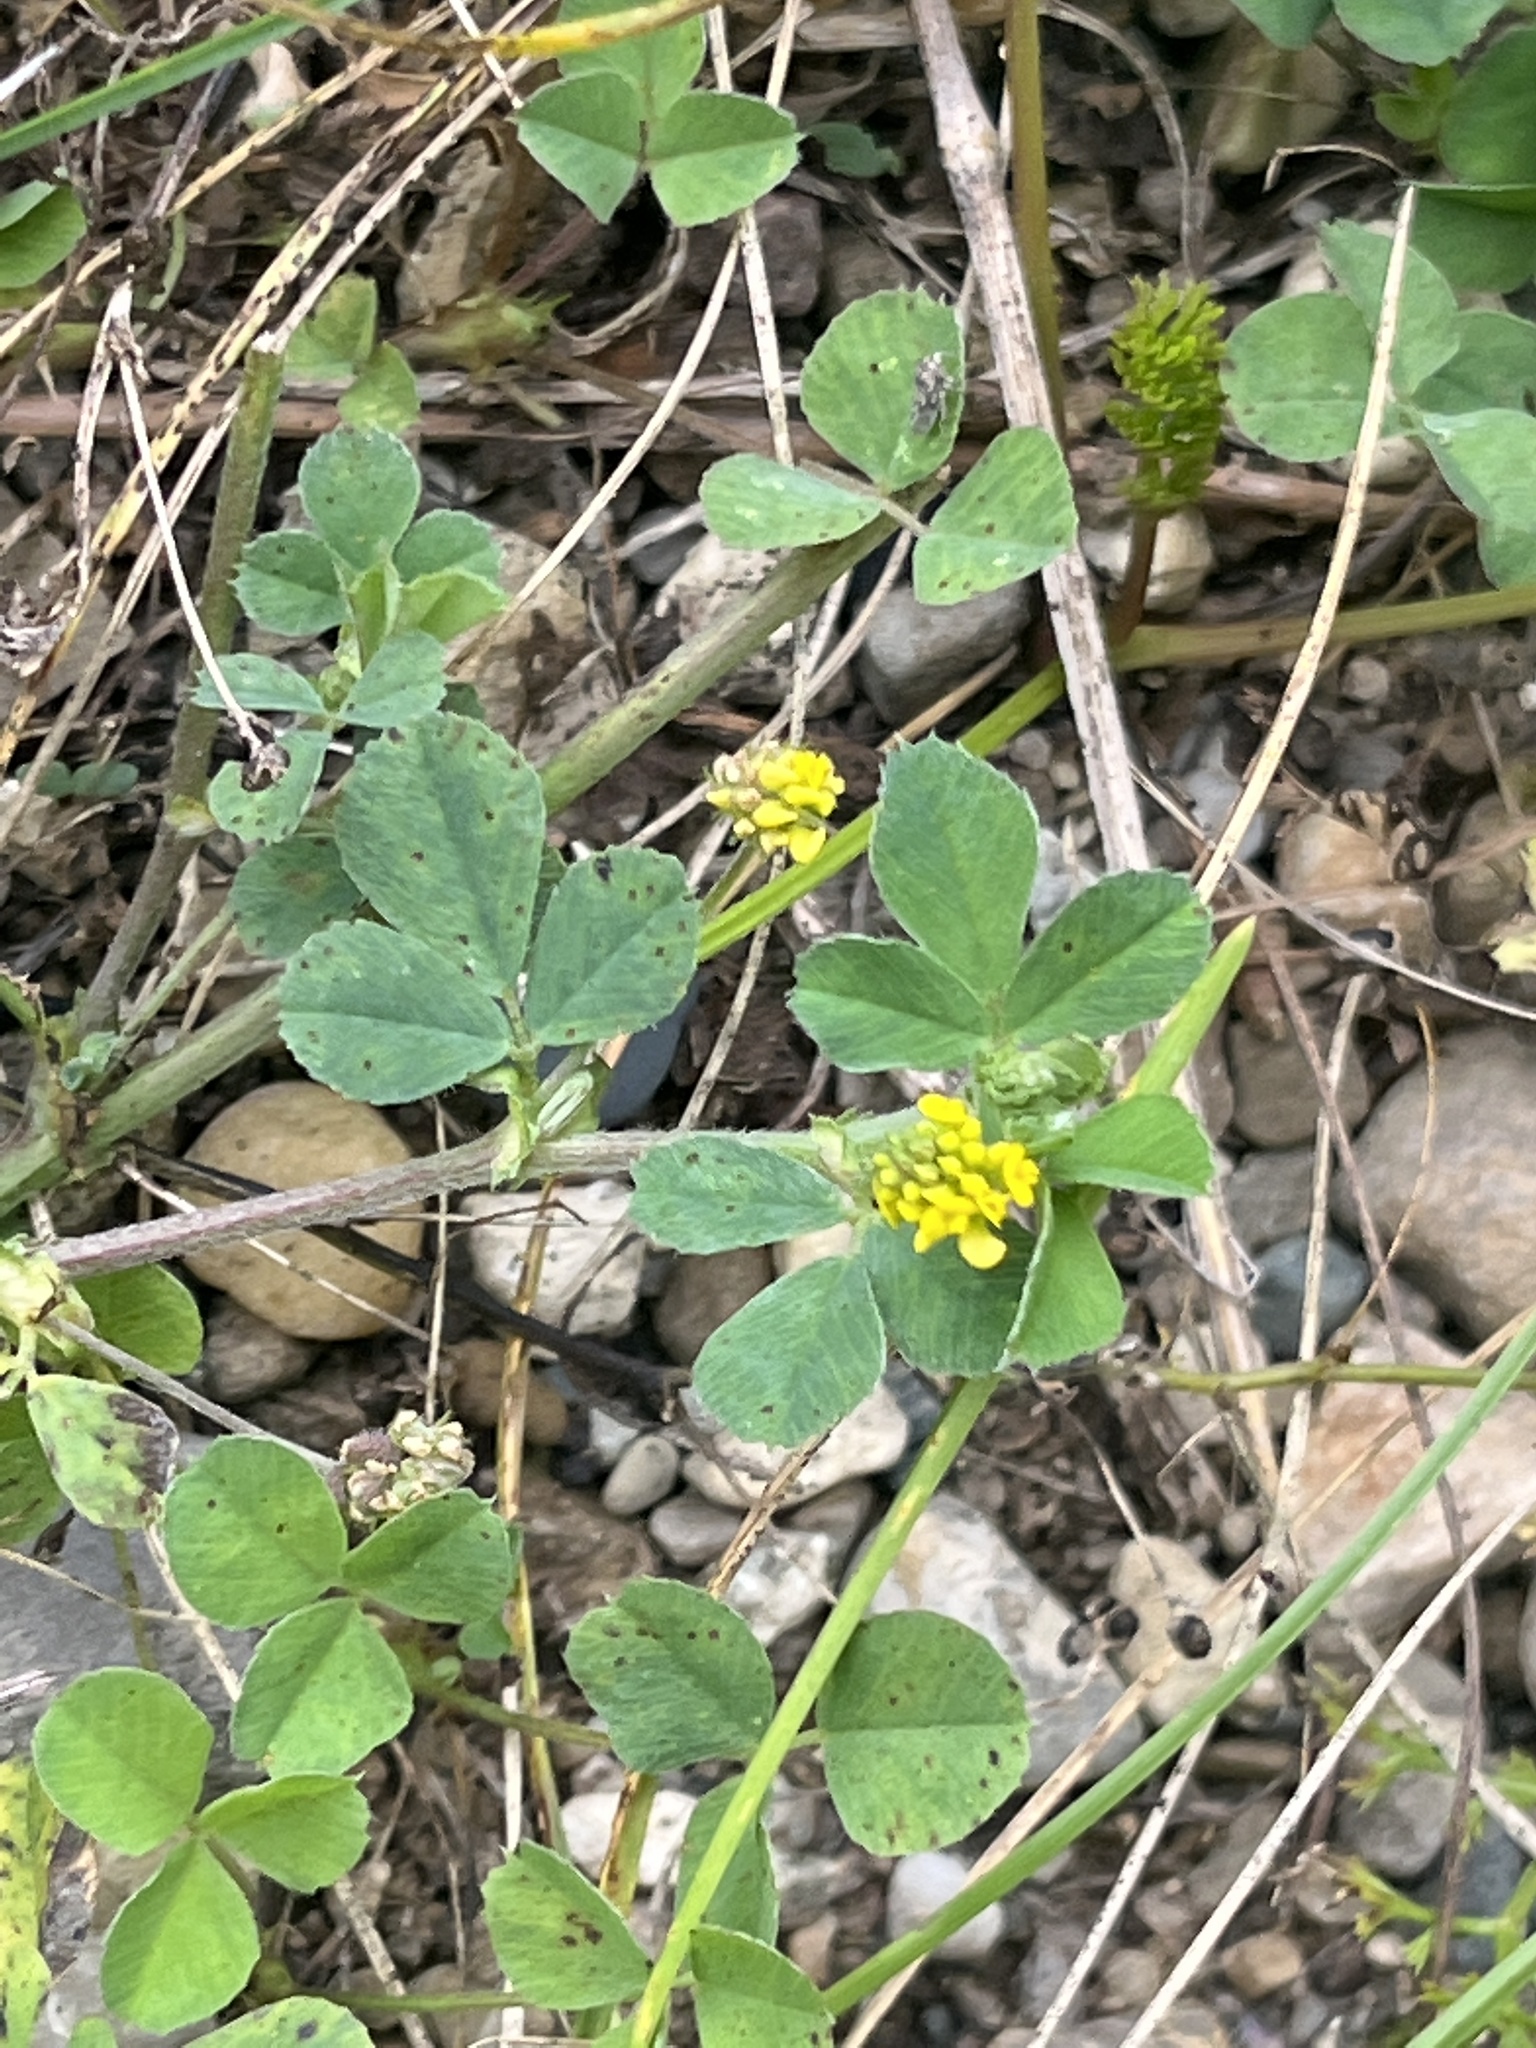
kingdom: Plantae
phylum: Tracheophyta
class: Magnoliopsida
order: Fabales
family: Fabaceae
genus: Medicago
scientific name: Medicago lupulina
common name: Black medick
